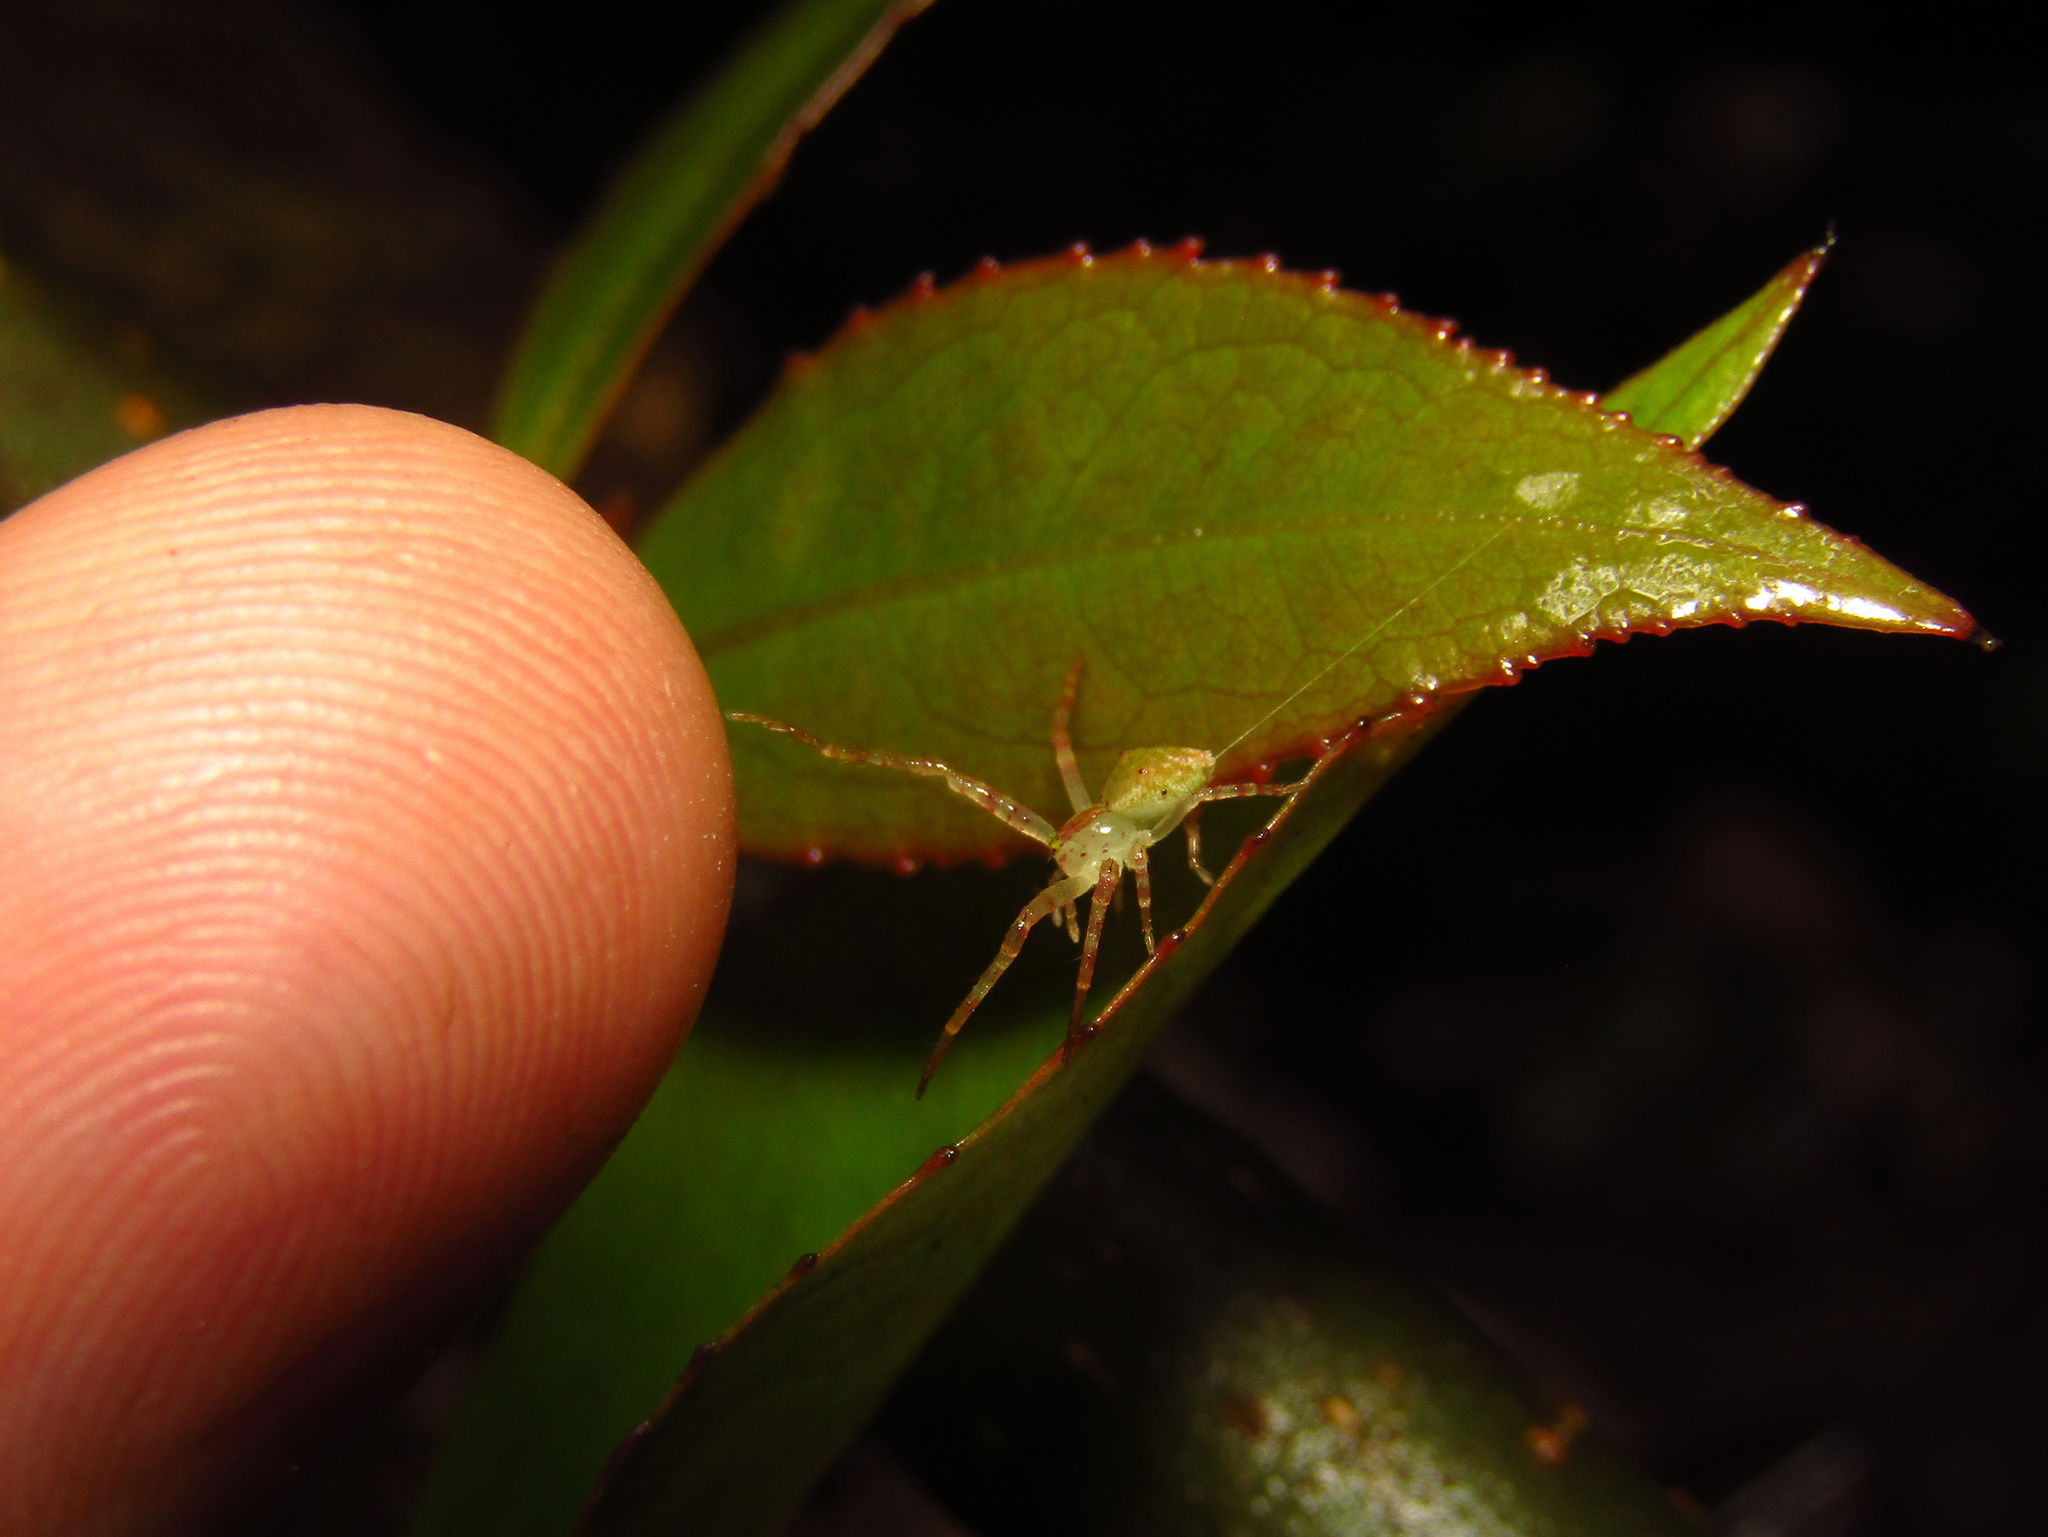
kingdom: Animalia
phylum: Arthropoda
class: Arachnida
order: Araneae
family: Thomisidae
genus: Sidymella
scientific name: Sidymella rubrosignata
